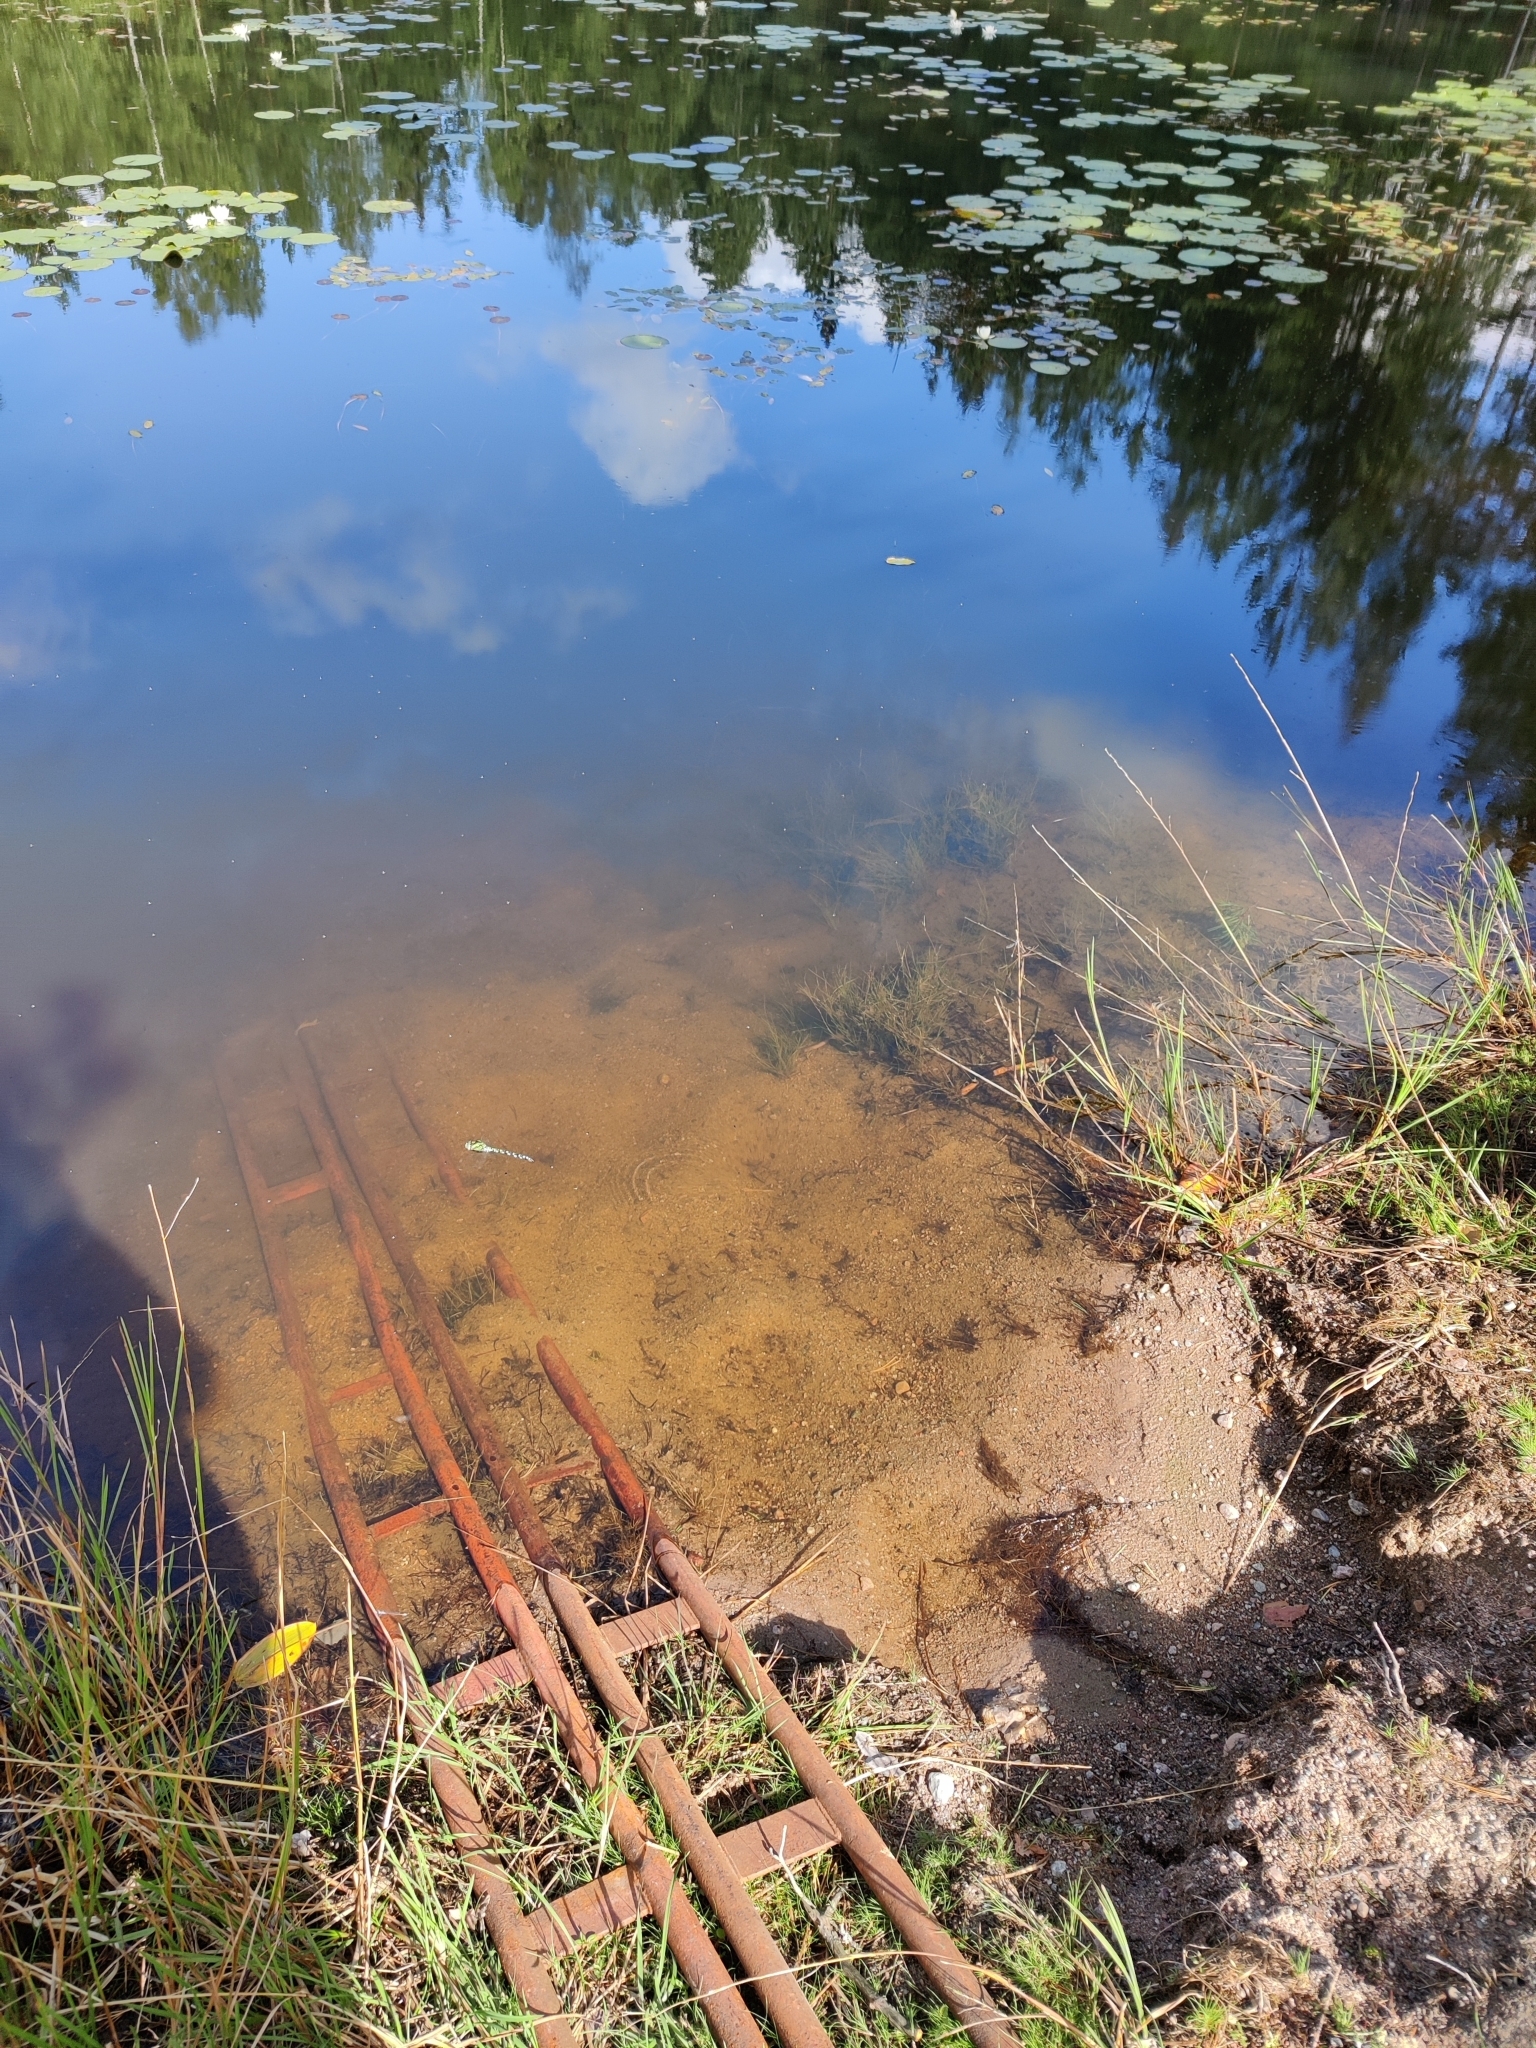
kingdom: Animalia
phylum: Arthropoda
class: Insecta
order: Odonata
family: Aeshnidae
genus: Aeshna
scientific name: Aeshna cyanea
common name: Southern hawker
